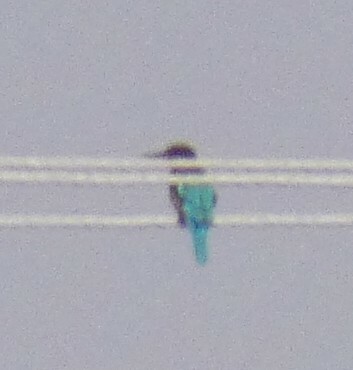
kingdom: Animalia
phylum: Chordata
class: Aves
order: Coraciiformes
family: Alcedinidae
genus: Halcyon
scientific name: Halcyon smyrnensis
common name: White-throated kingfisher
